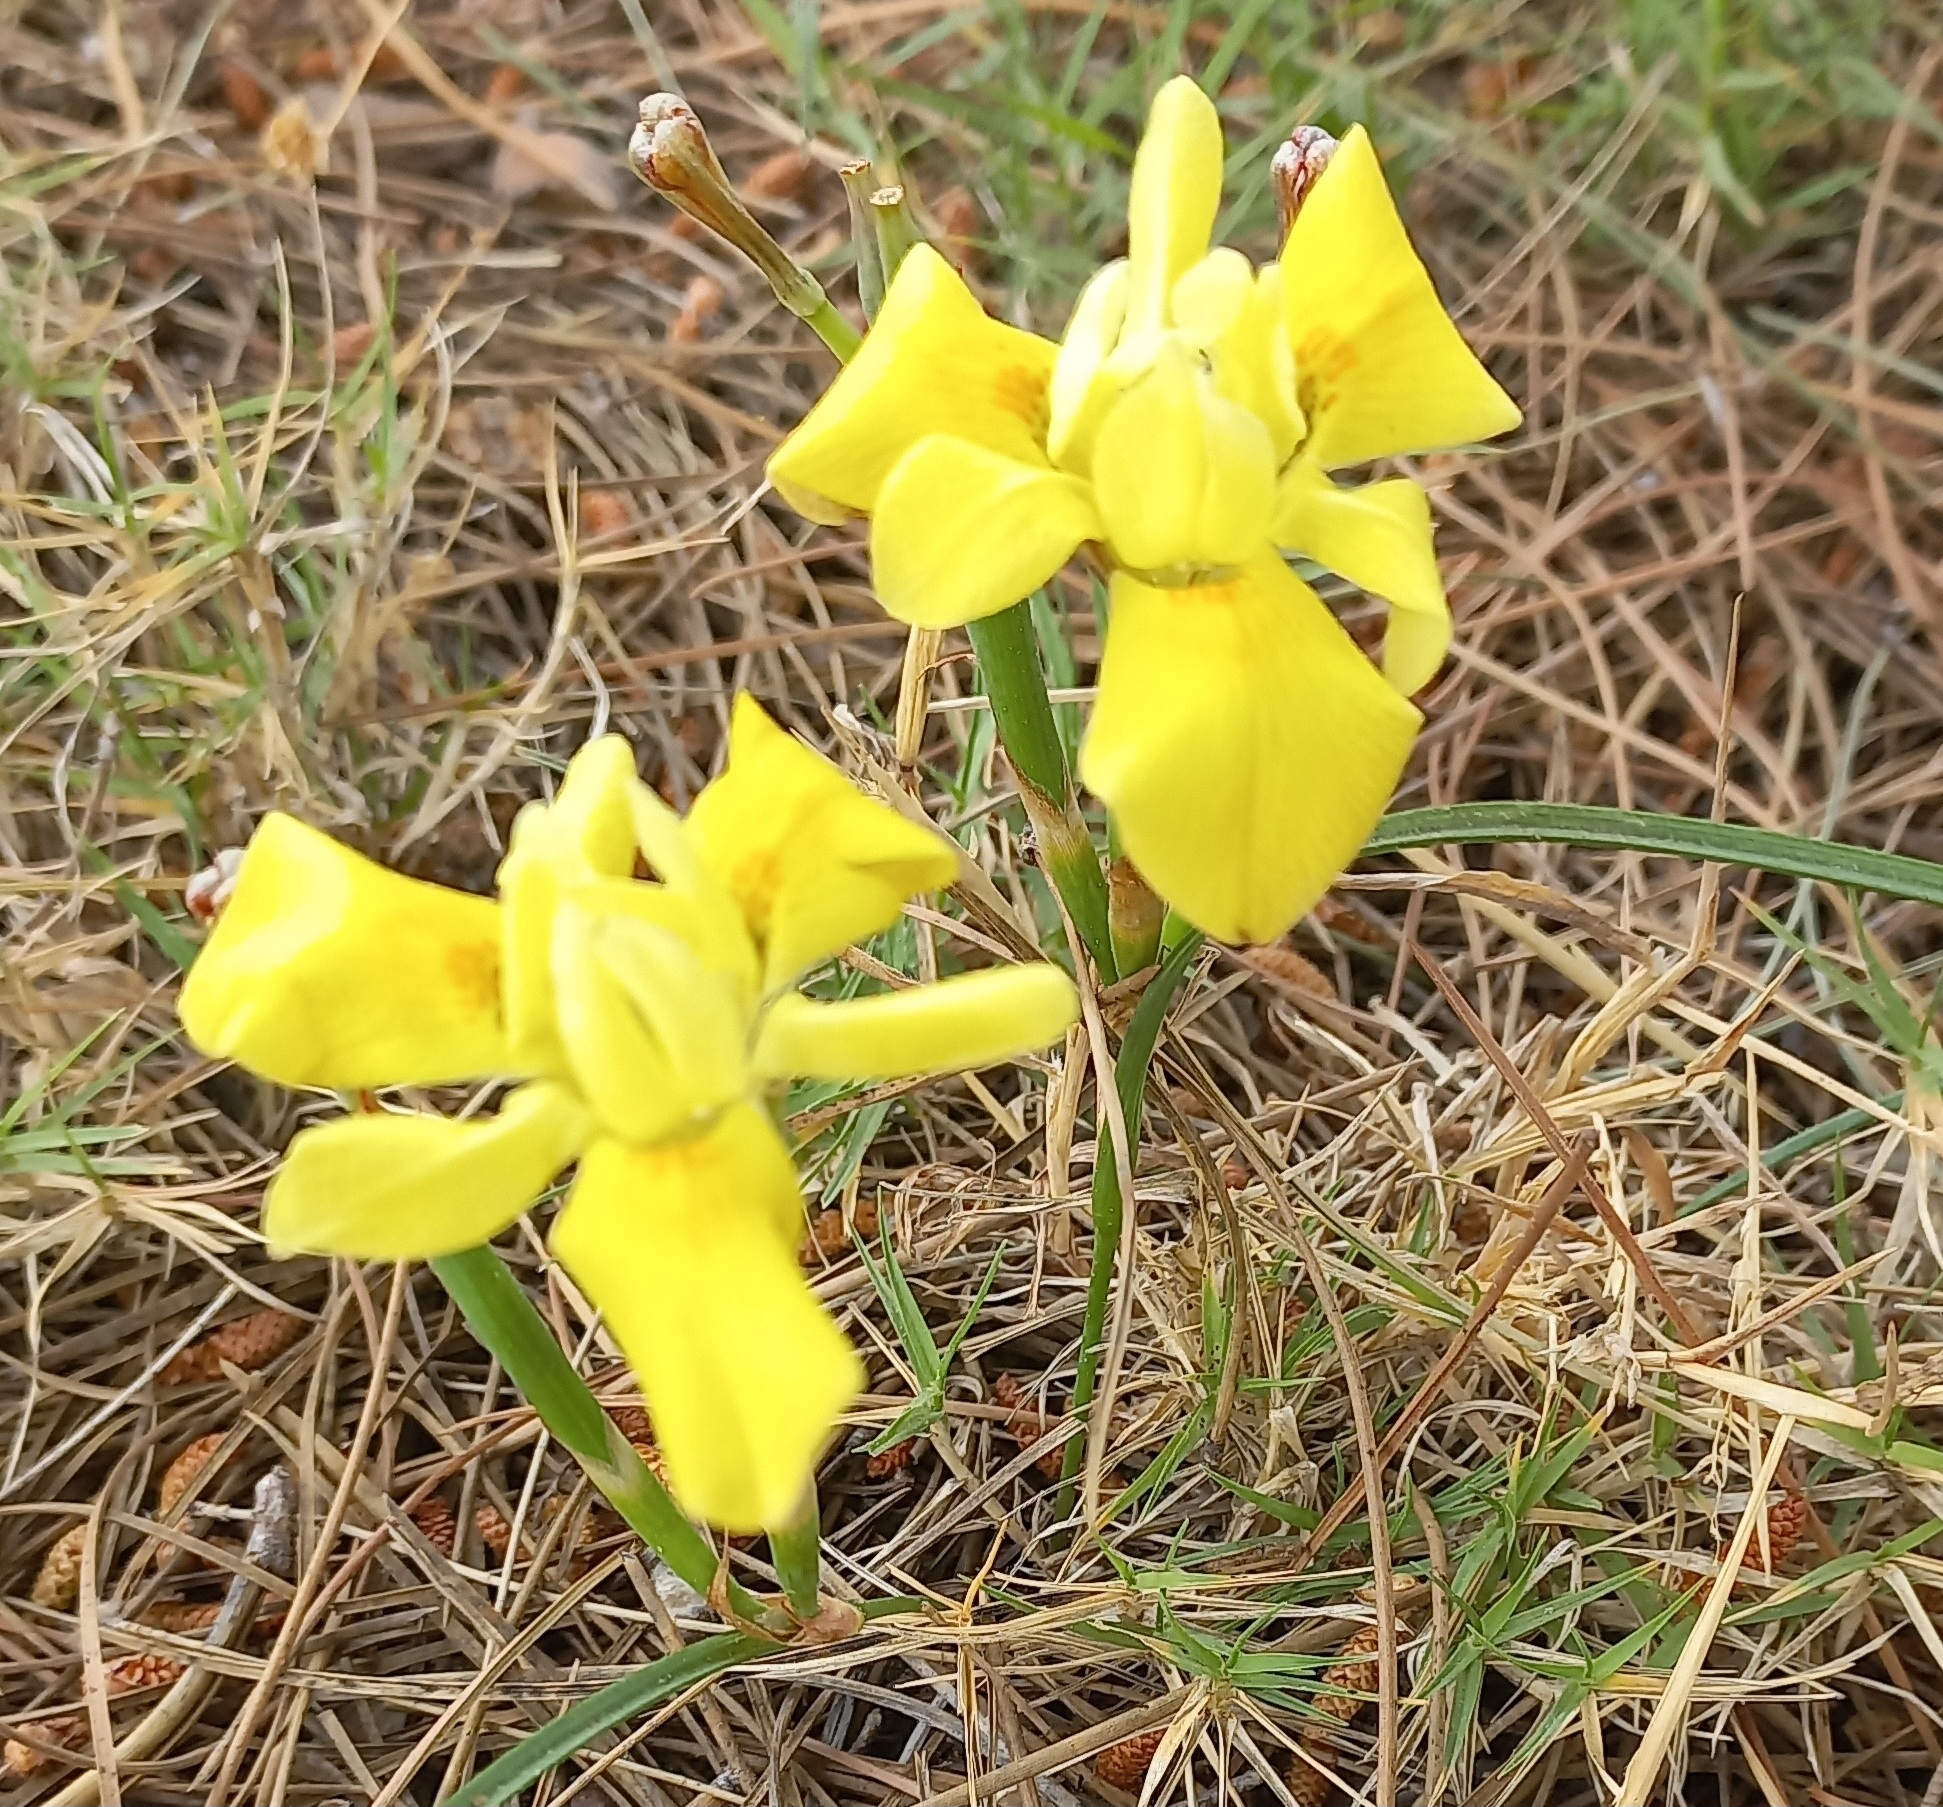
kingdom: Plantae
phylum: Tracheophyta
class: Liliopsida
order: Asparagales
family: Iridaceae
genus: Moraea
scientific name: Moraea fugax
